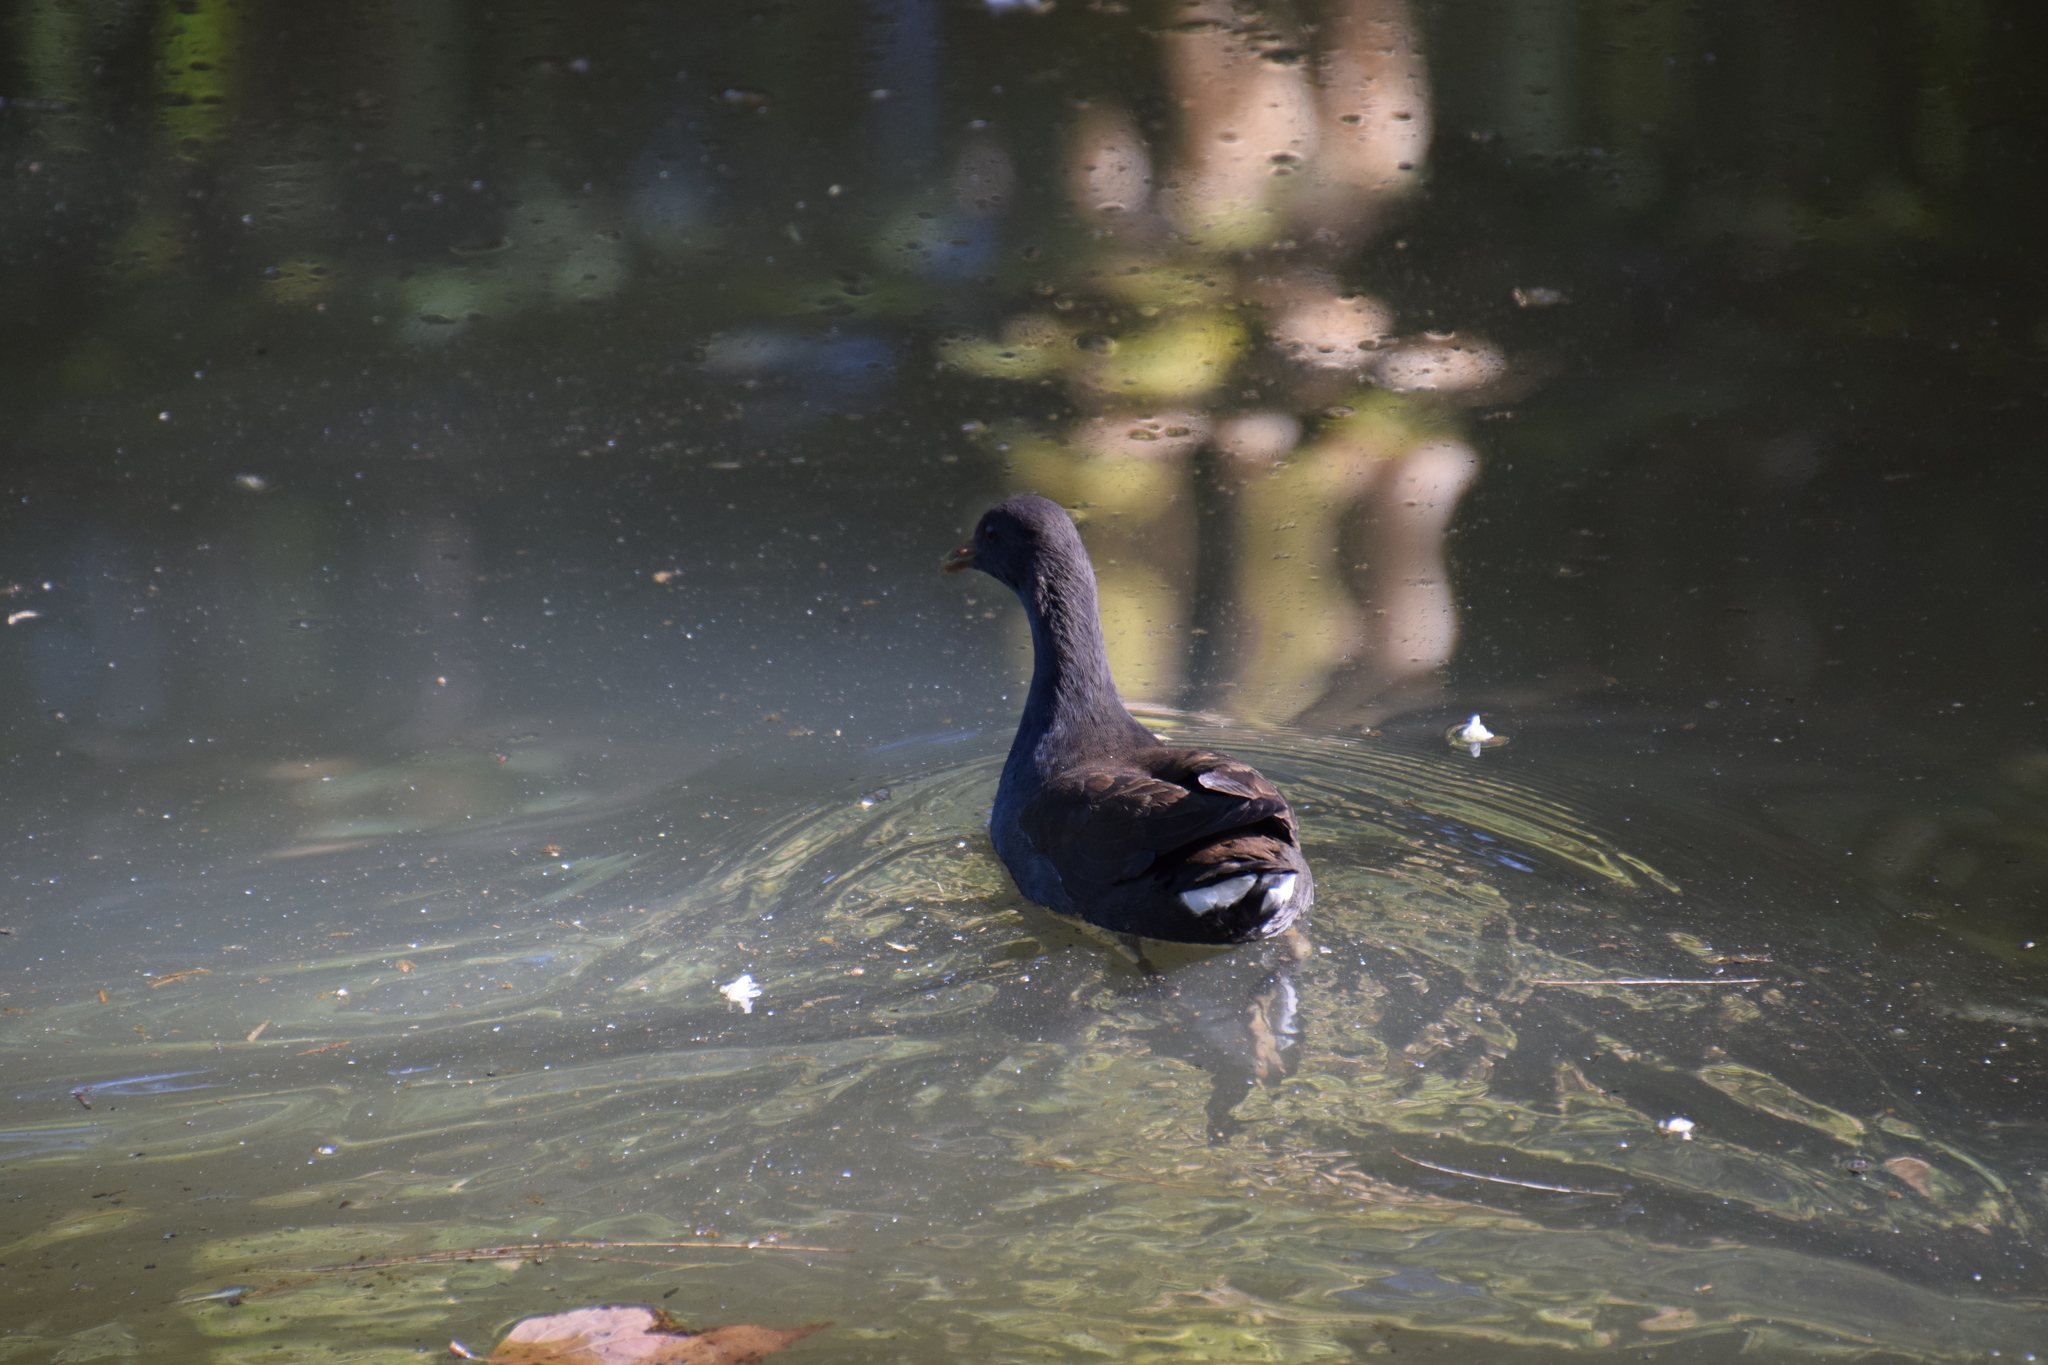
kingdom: Animalia
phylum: Chordata
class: Aves
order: Gruiformes
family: Rallidae
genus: Gallinula
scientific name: Gallinula tenebrosa
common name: Dusky moorhen
